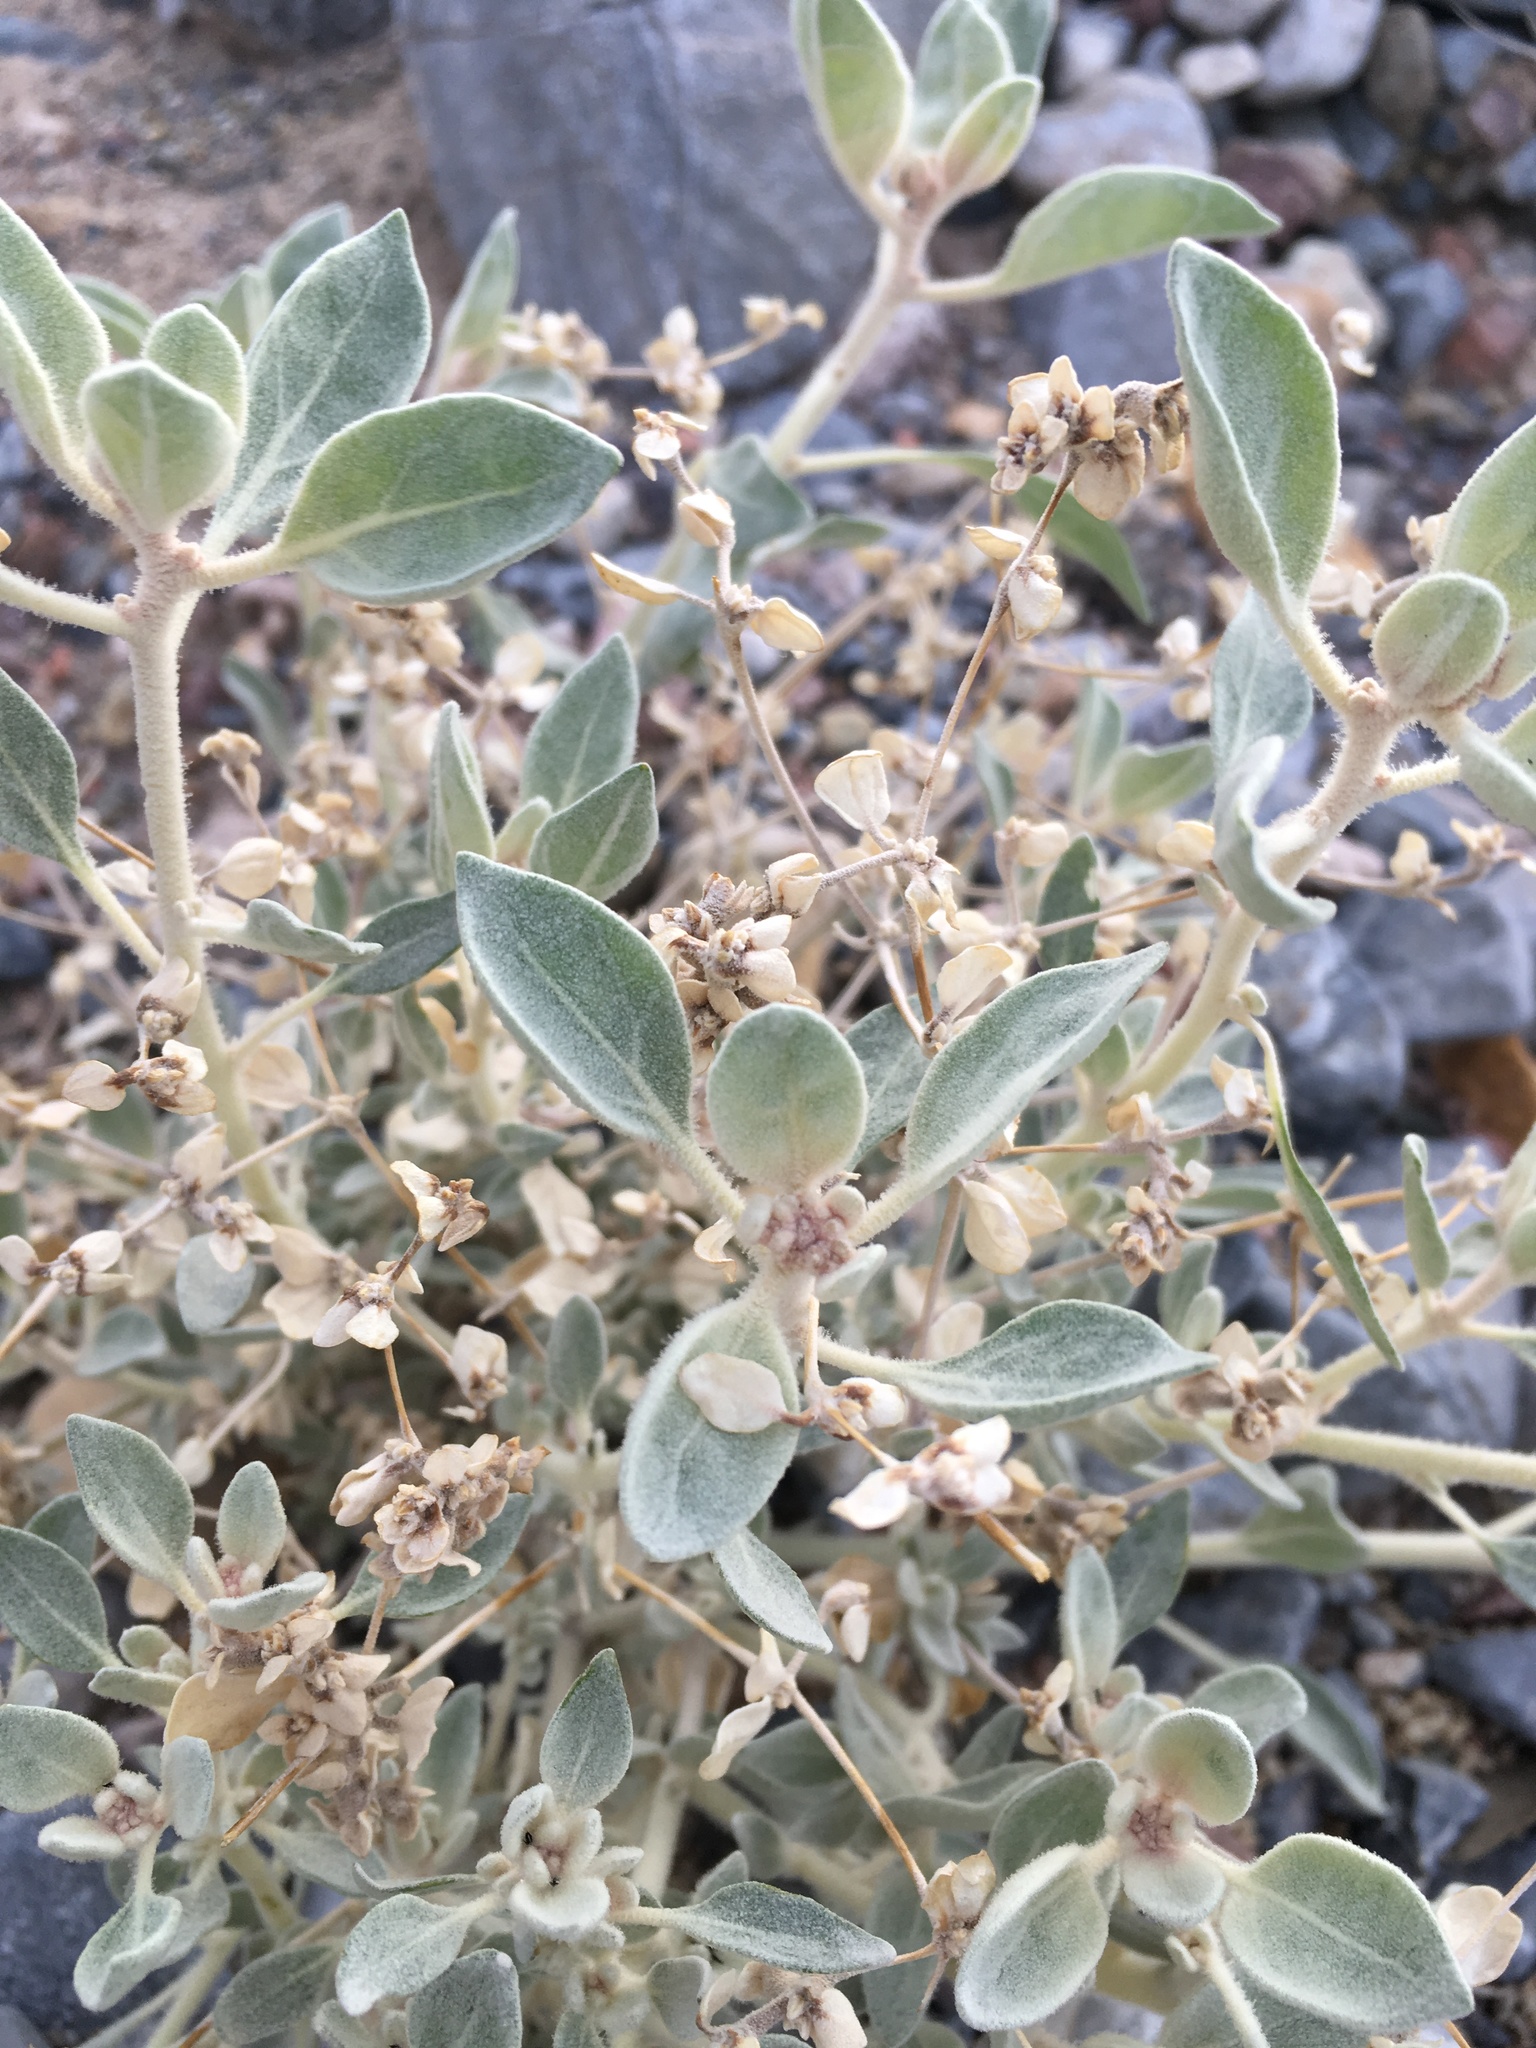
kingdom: Plantae
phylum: Tracheophyta
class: Magnoliopsida
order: Caryophyllales
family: Amaranthaceae
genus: Tidestromia
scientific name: Tidestromia suffruticosa
